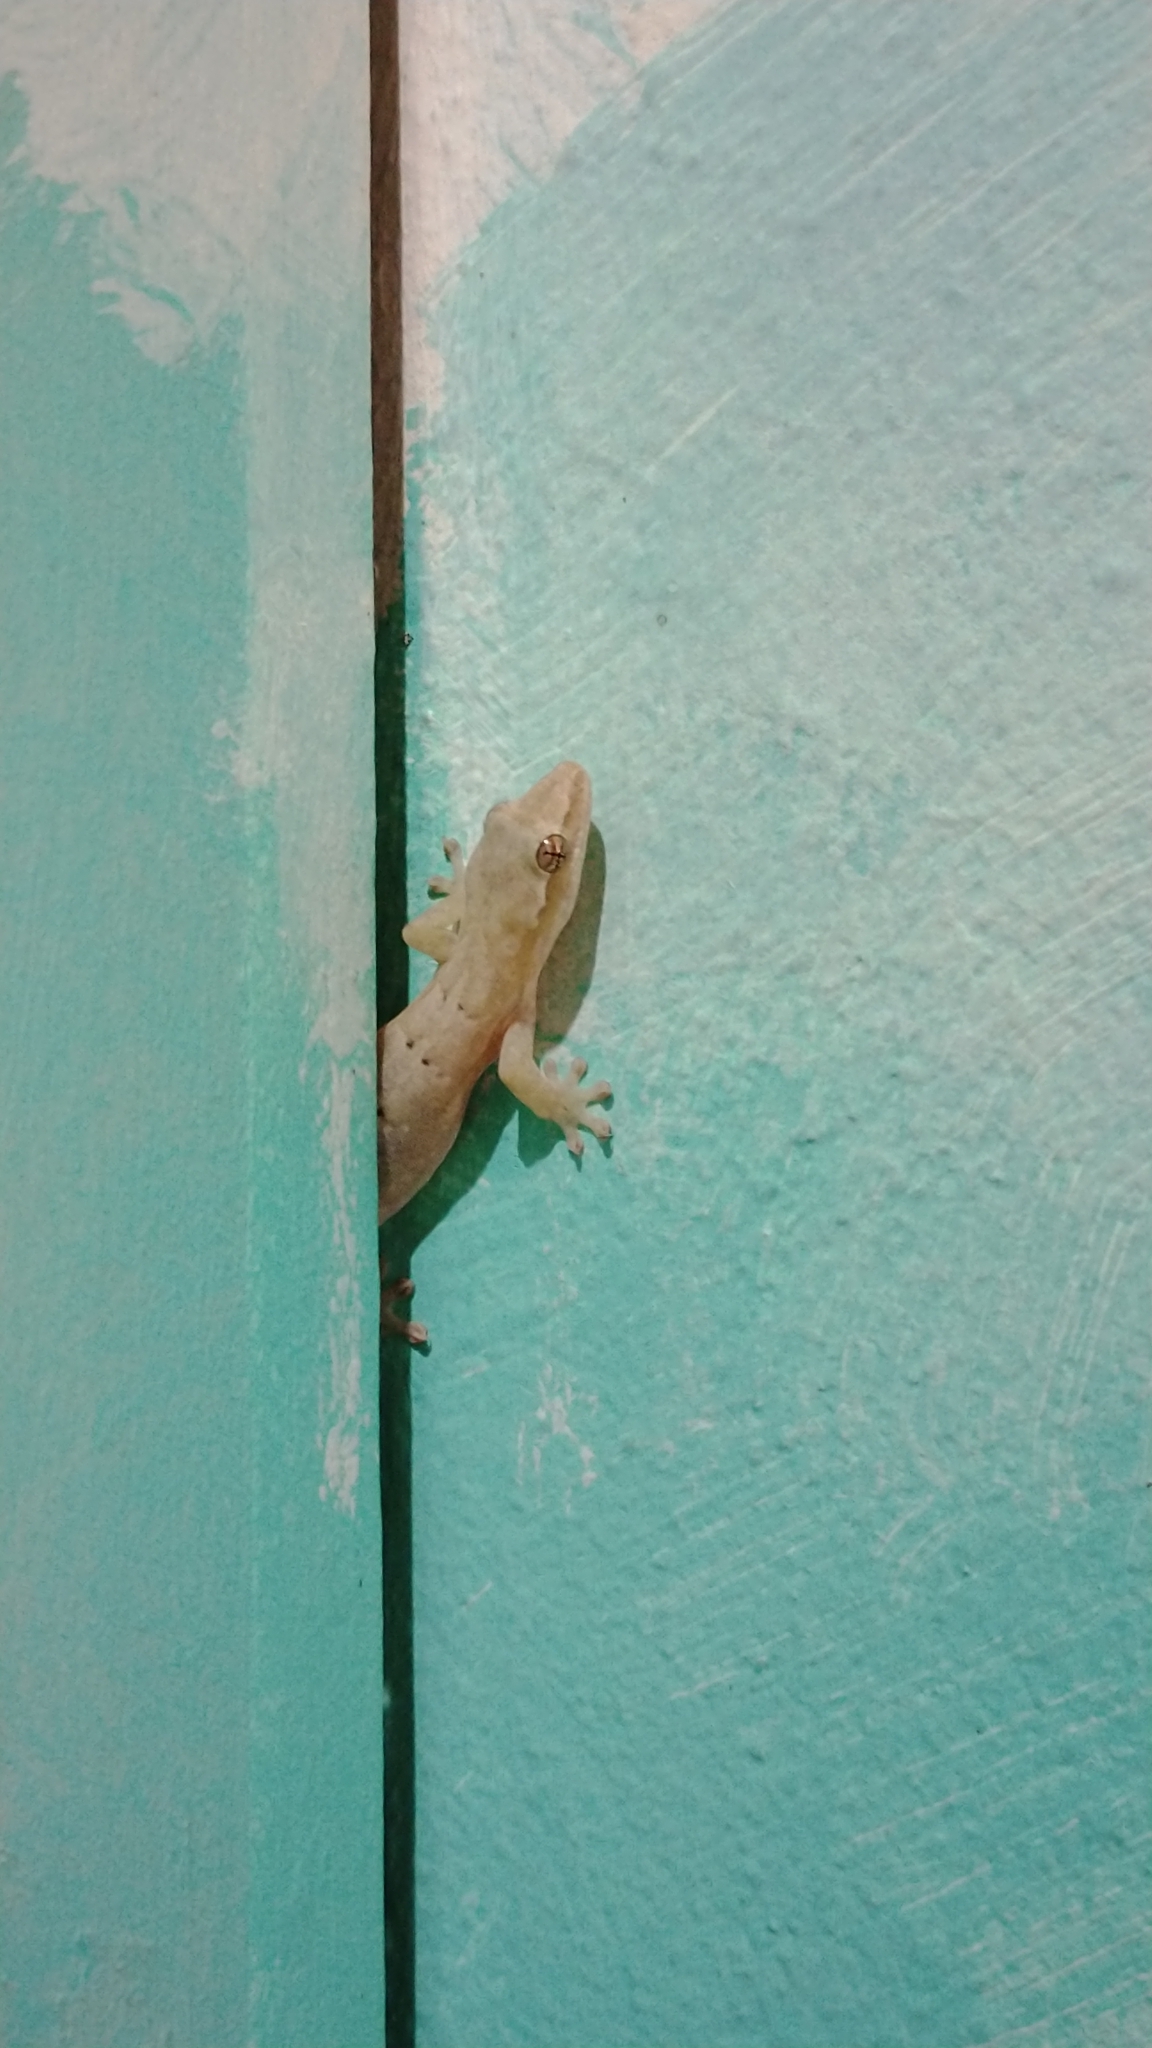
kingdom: Animalia
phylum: Chordata
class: Squamata
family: Gekkonidae
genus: Lepidodactylus
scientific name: Lepidodactylus lugubris
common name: Mourning gecko
